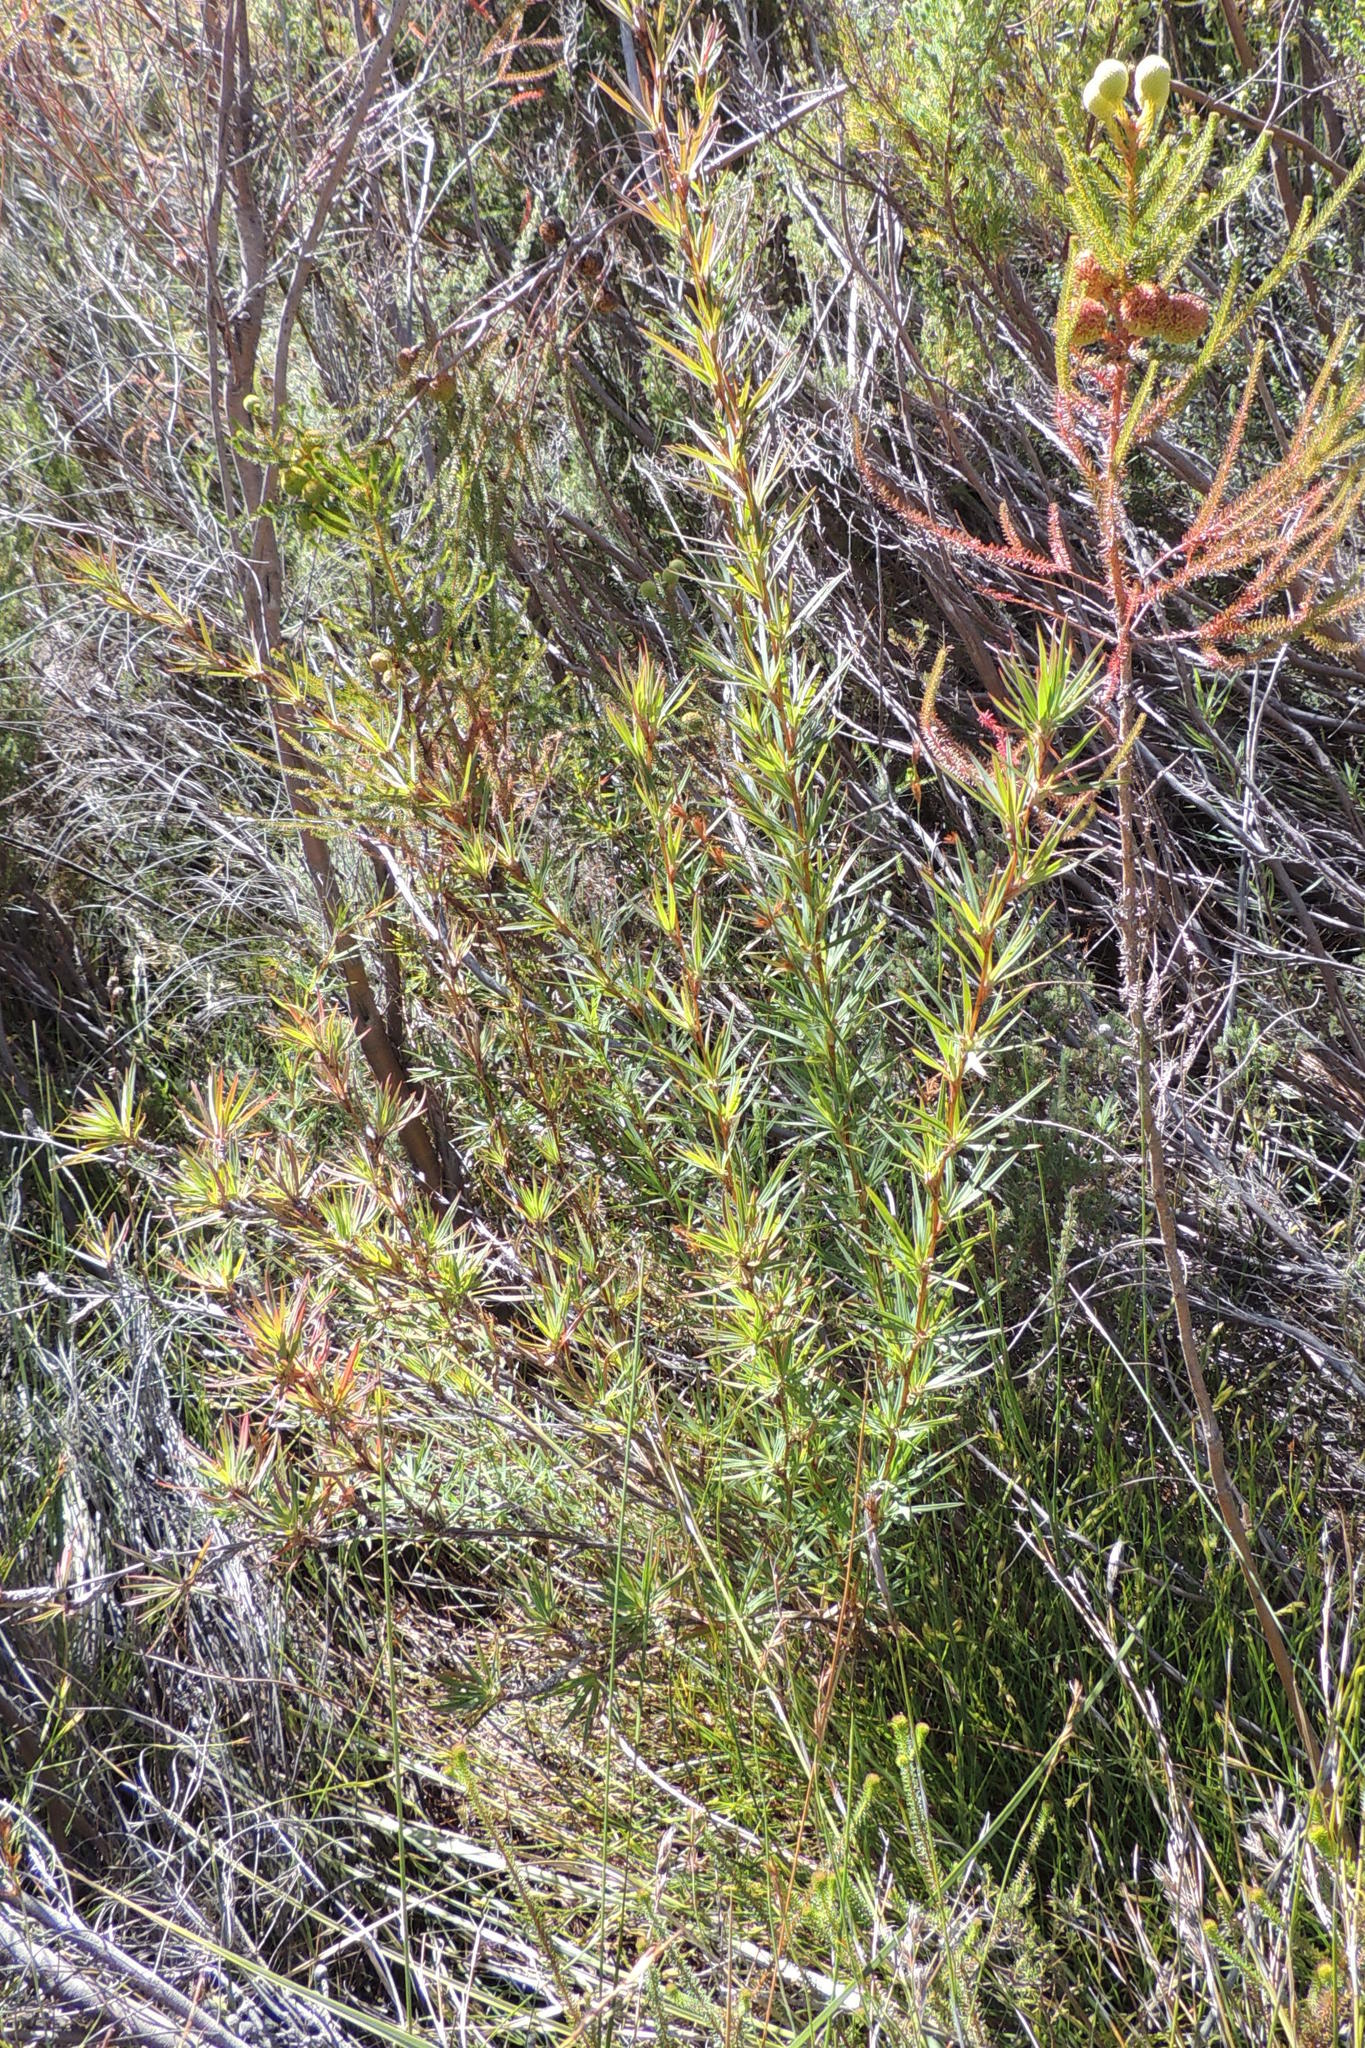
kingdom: Plantae
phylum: Tracheophyta
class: Magnoliopsida
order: Rosales
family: Rosaceae
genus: Cliffortia
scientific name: Cliffortia strobilifera
